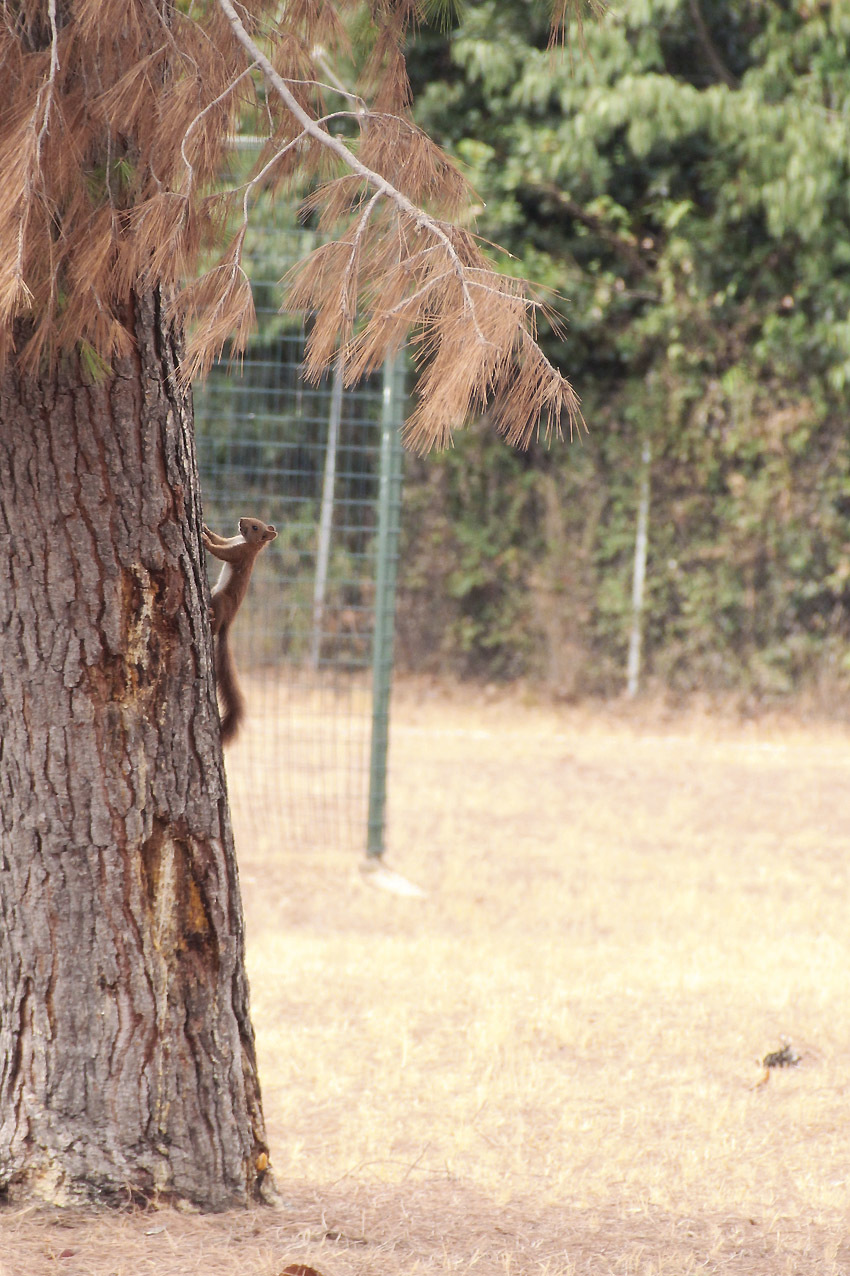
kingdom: Animalia
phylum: Chordata
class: Mammalia
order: Rodentia
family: Sciuridae
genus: Sciurus
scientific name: Sciurus vulgaris
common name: Eurasian red squirrel
